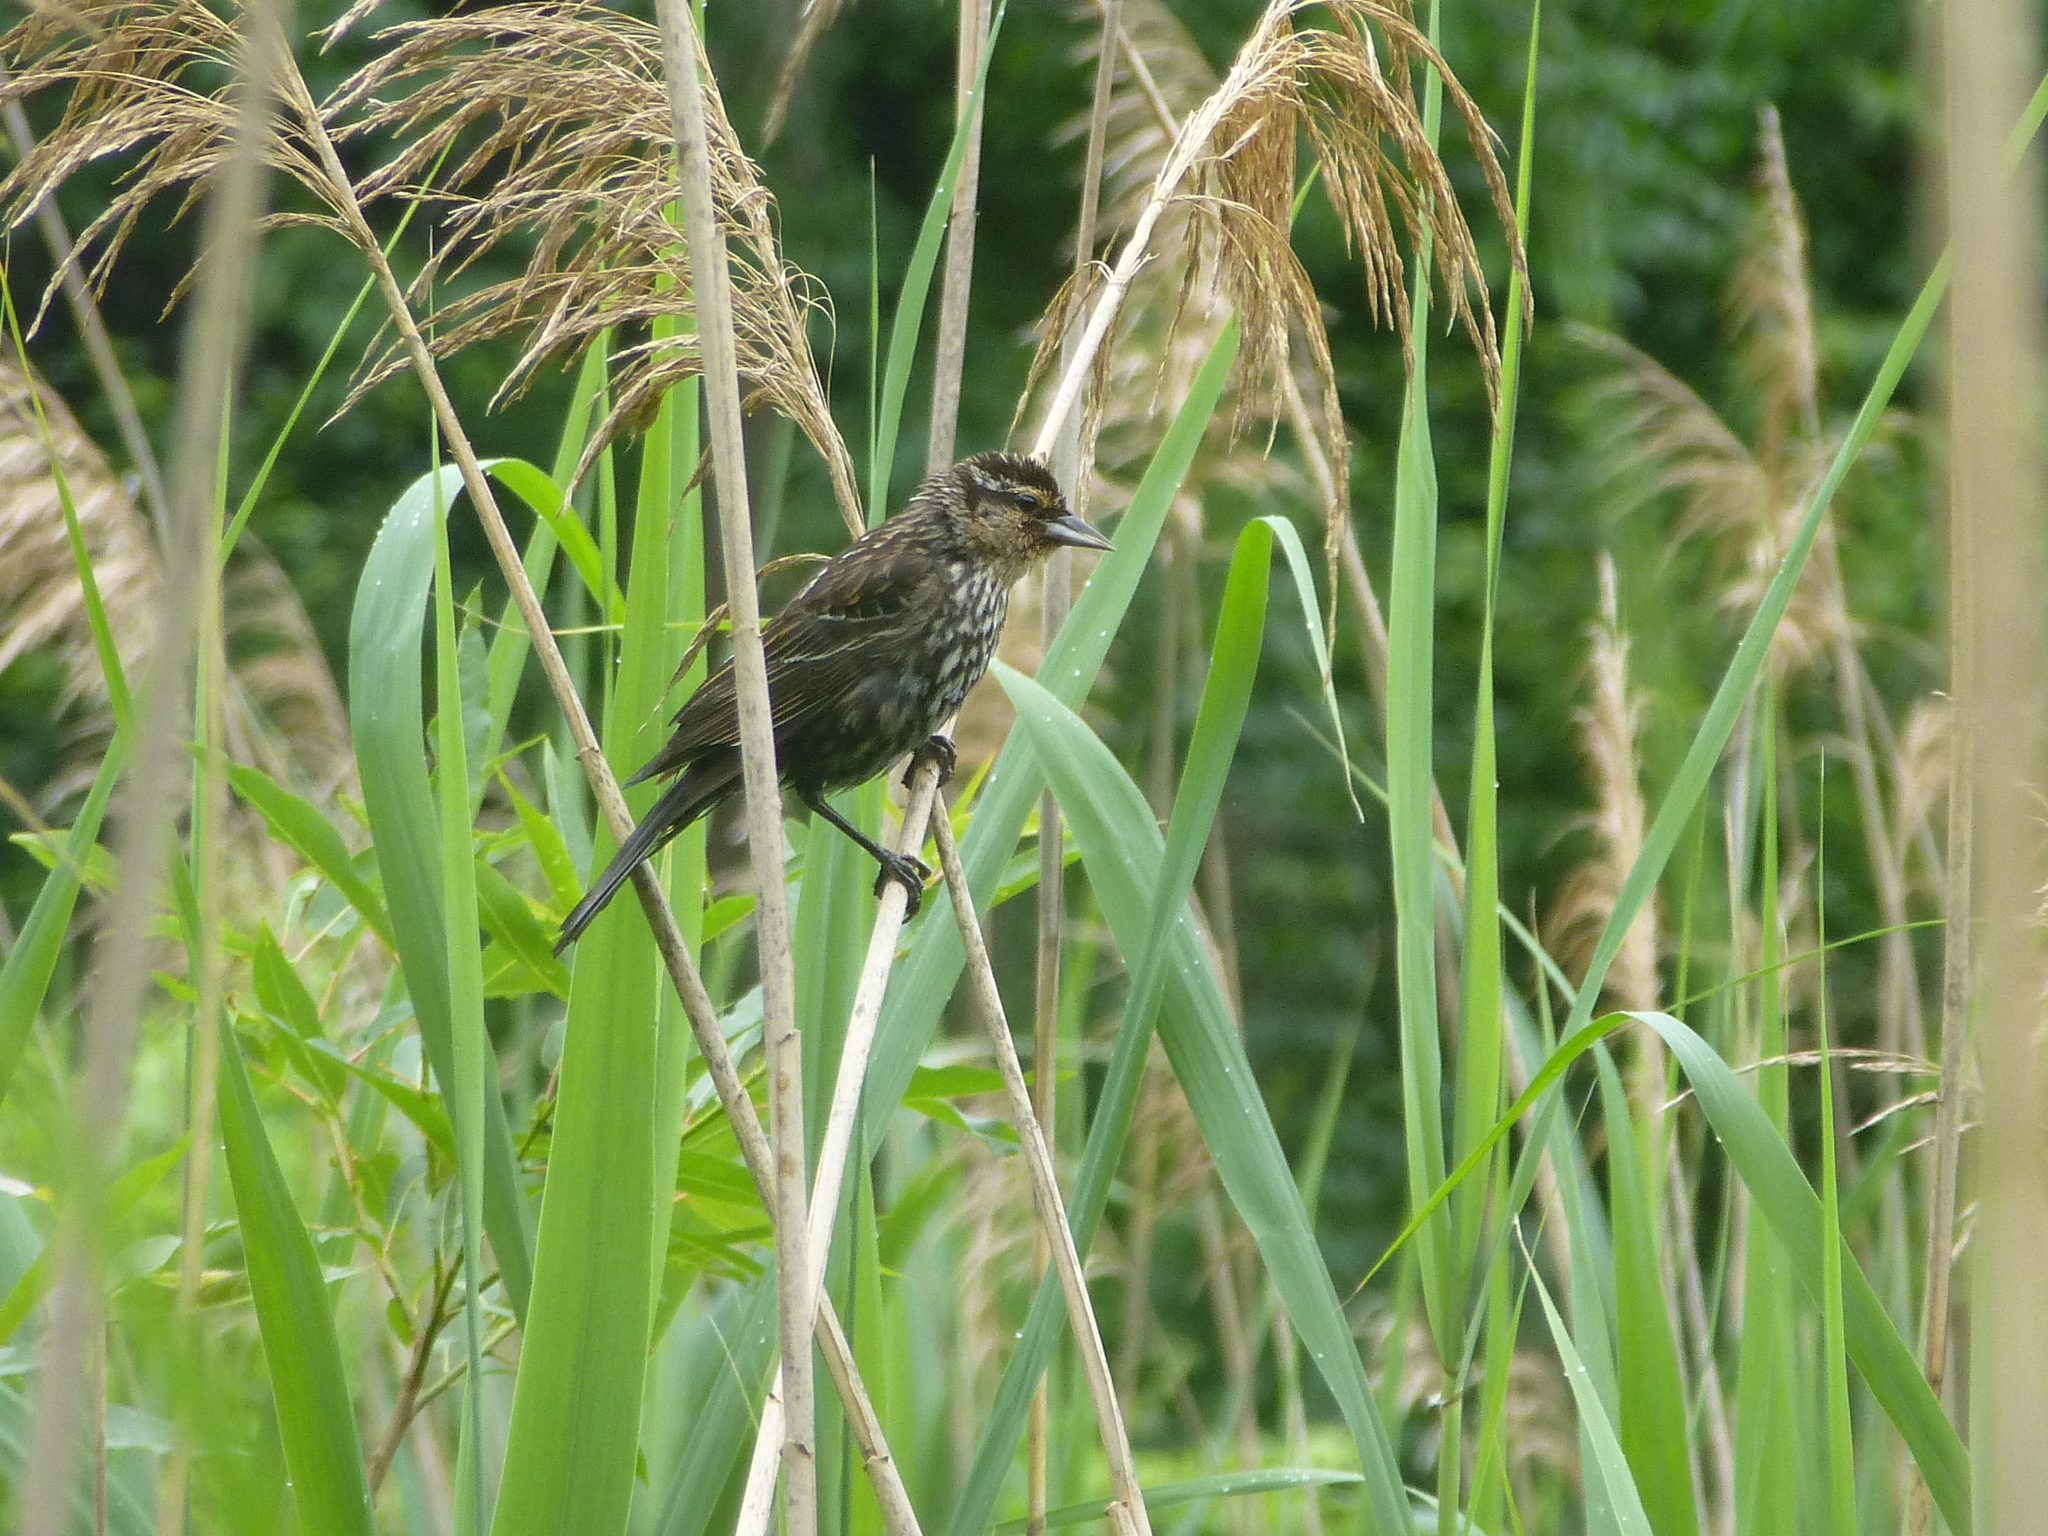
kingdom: Animalia
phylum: Chordata
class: Aves
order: Passeriformes
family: Icteridae
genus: Agelaius
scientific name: Agelaius phoeniceus
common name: Red-winged blackbird
